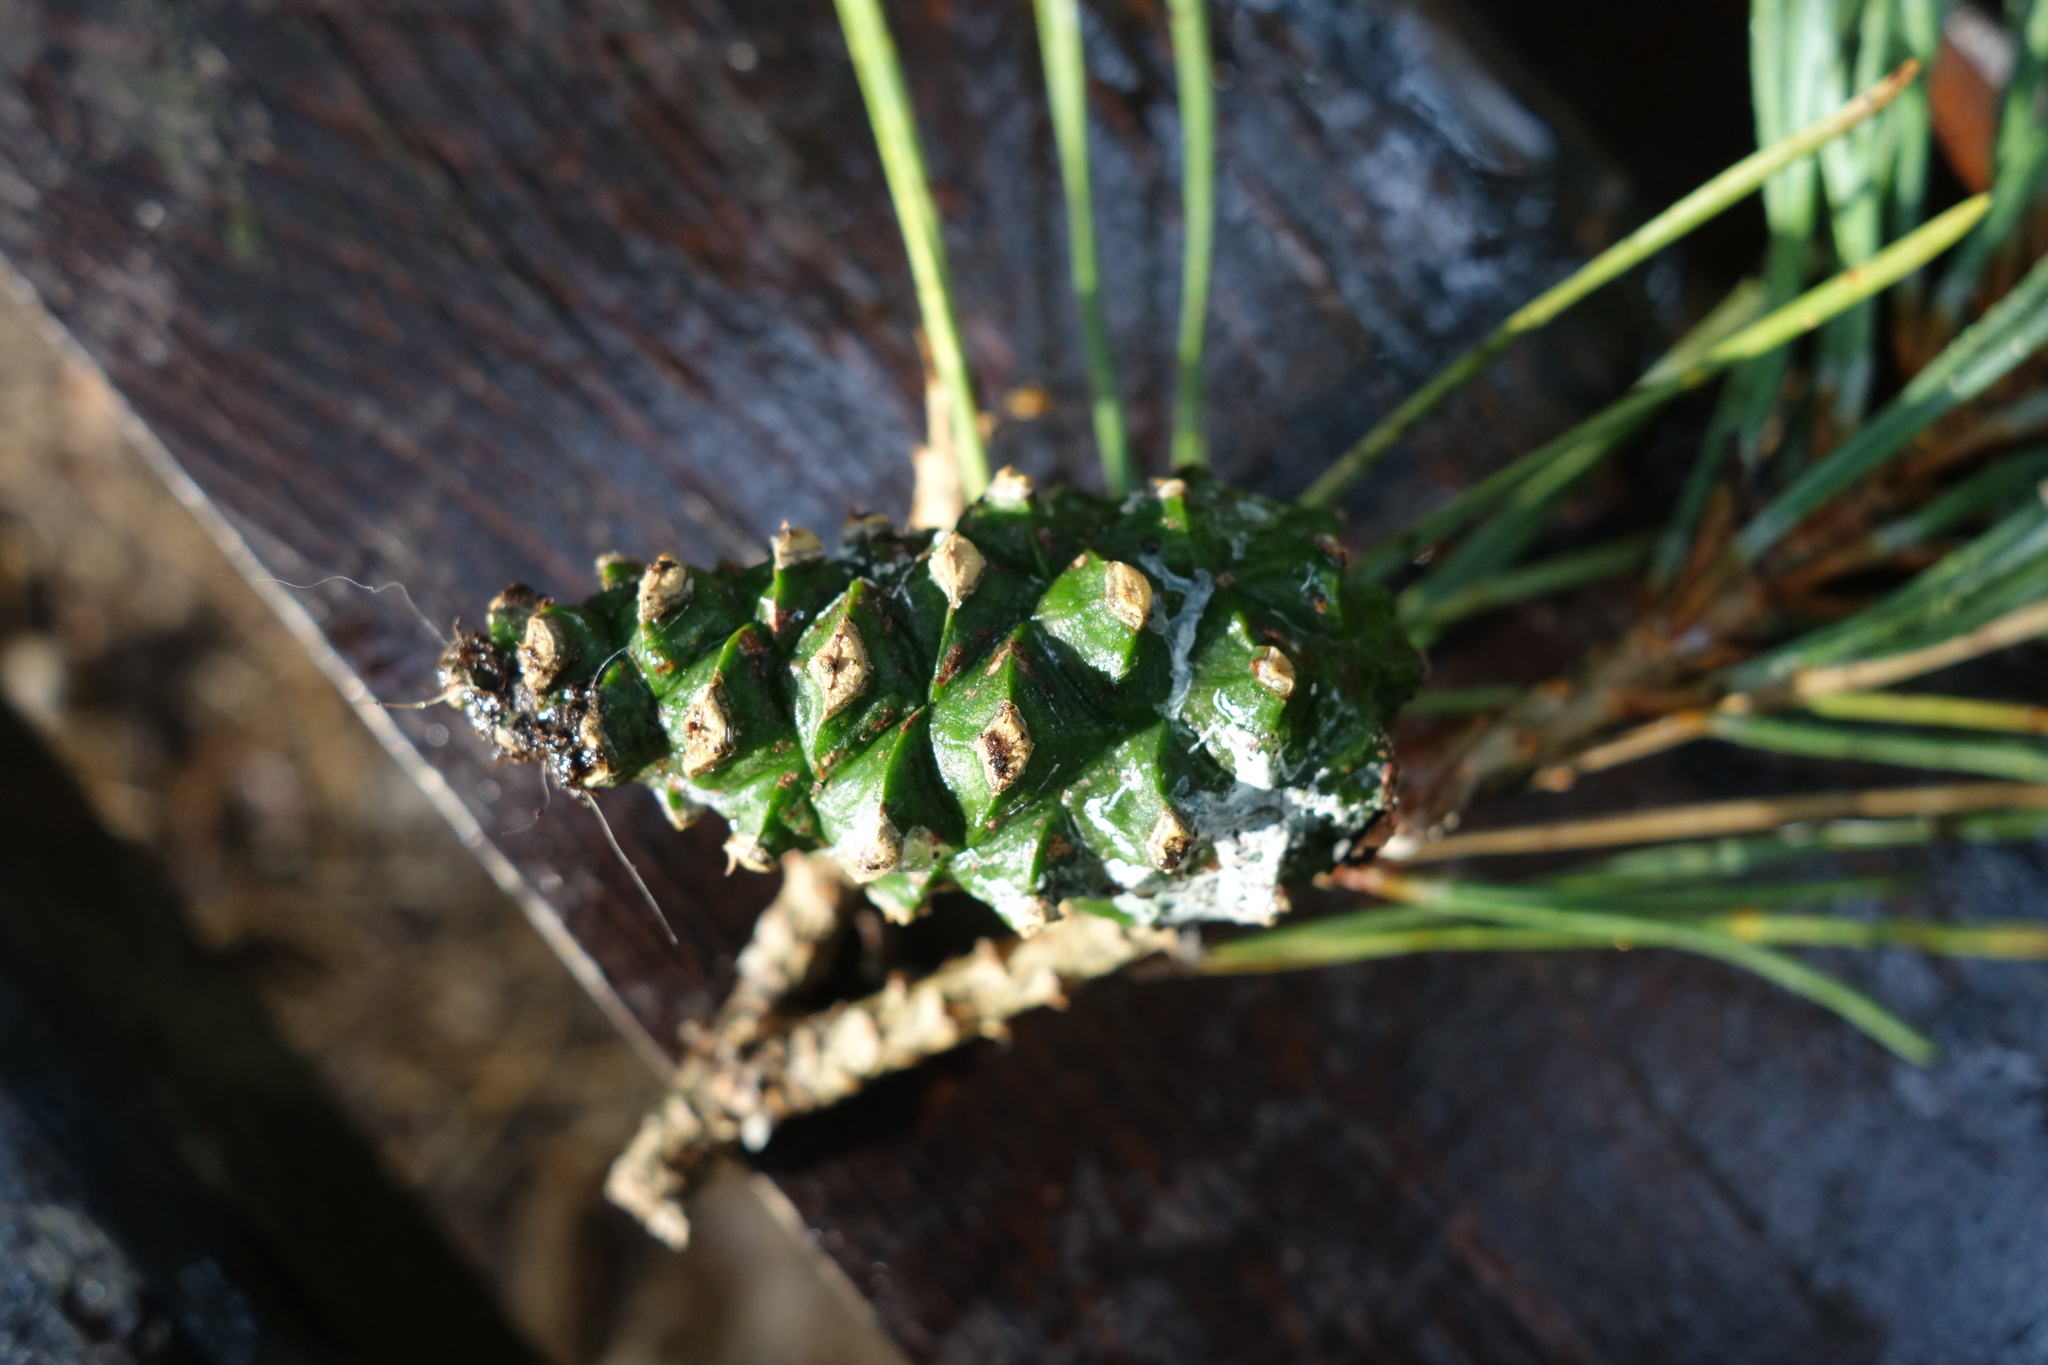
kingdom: Plantae
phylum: Tracheophyta
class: Pinopsida
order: Pinales
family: Pinaceae
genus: Pinus
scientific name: Pinus sylvestris
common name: Scots pine
